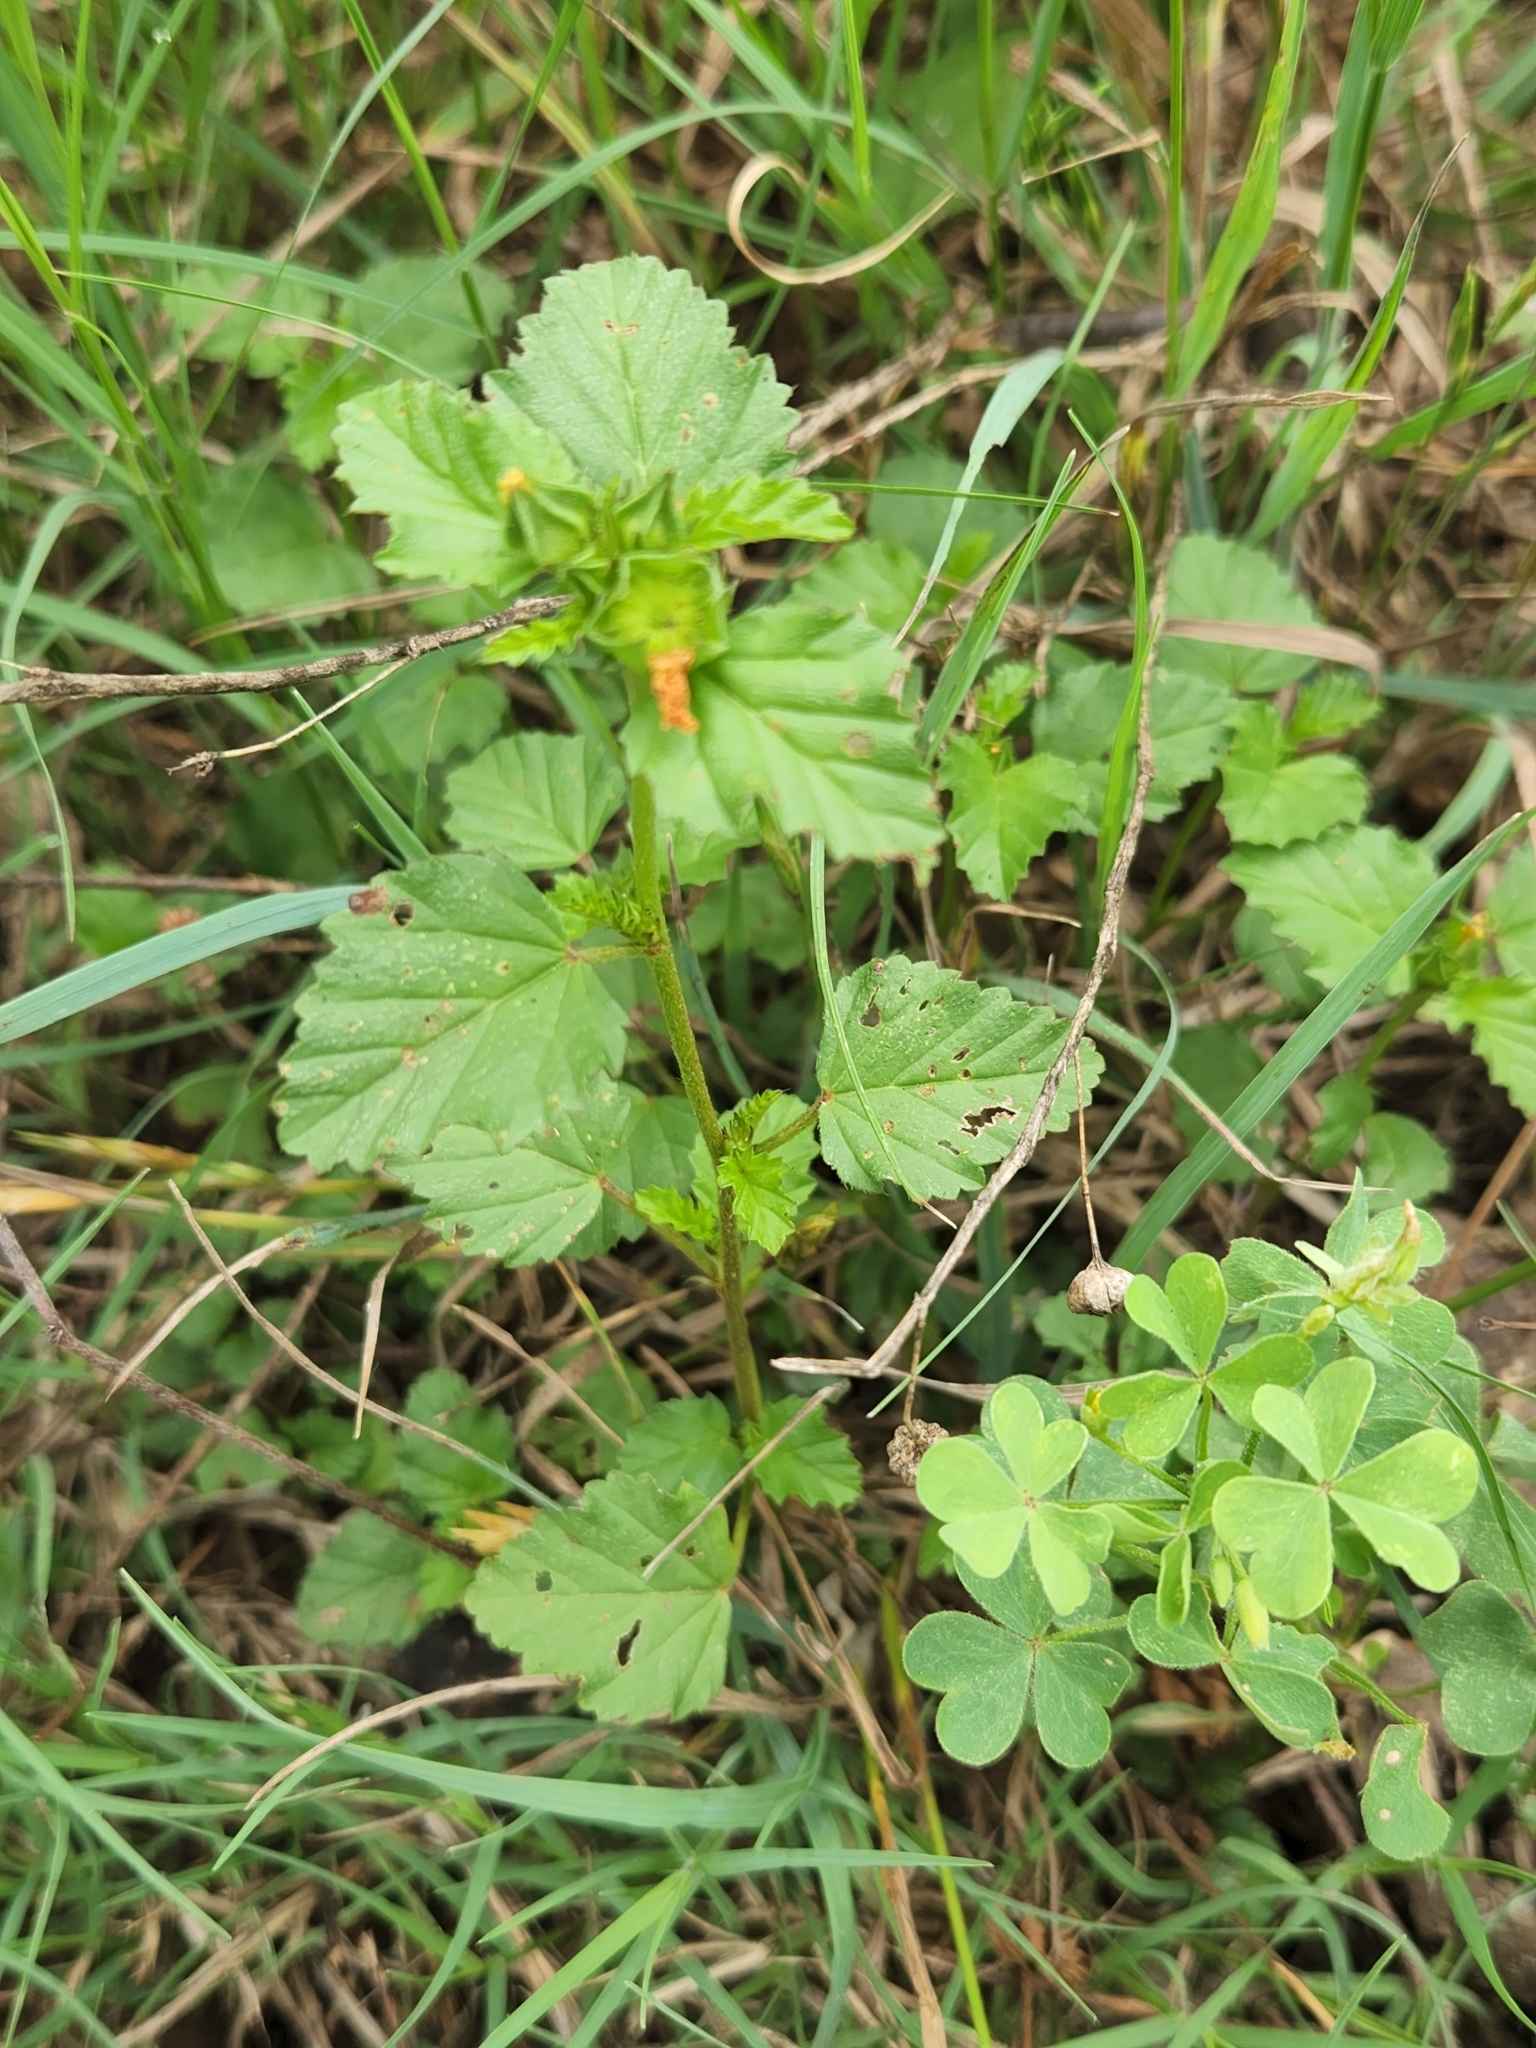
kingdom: Plantae
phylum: Tracheophyta
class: Magnoliopsida
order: Malvales
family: Malvaceae
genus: Malvastrum
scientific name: Malvastrum coromandelianum
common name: Threelobe false mallow
